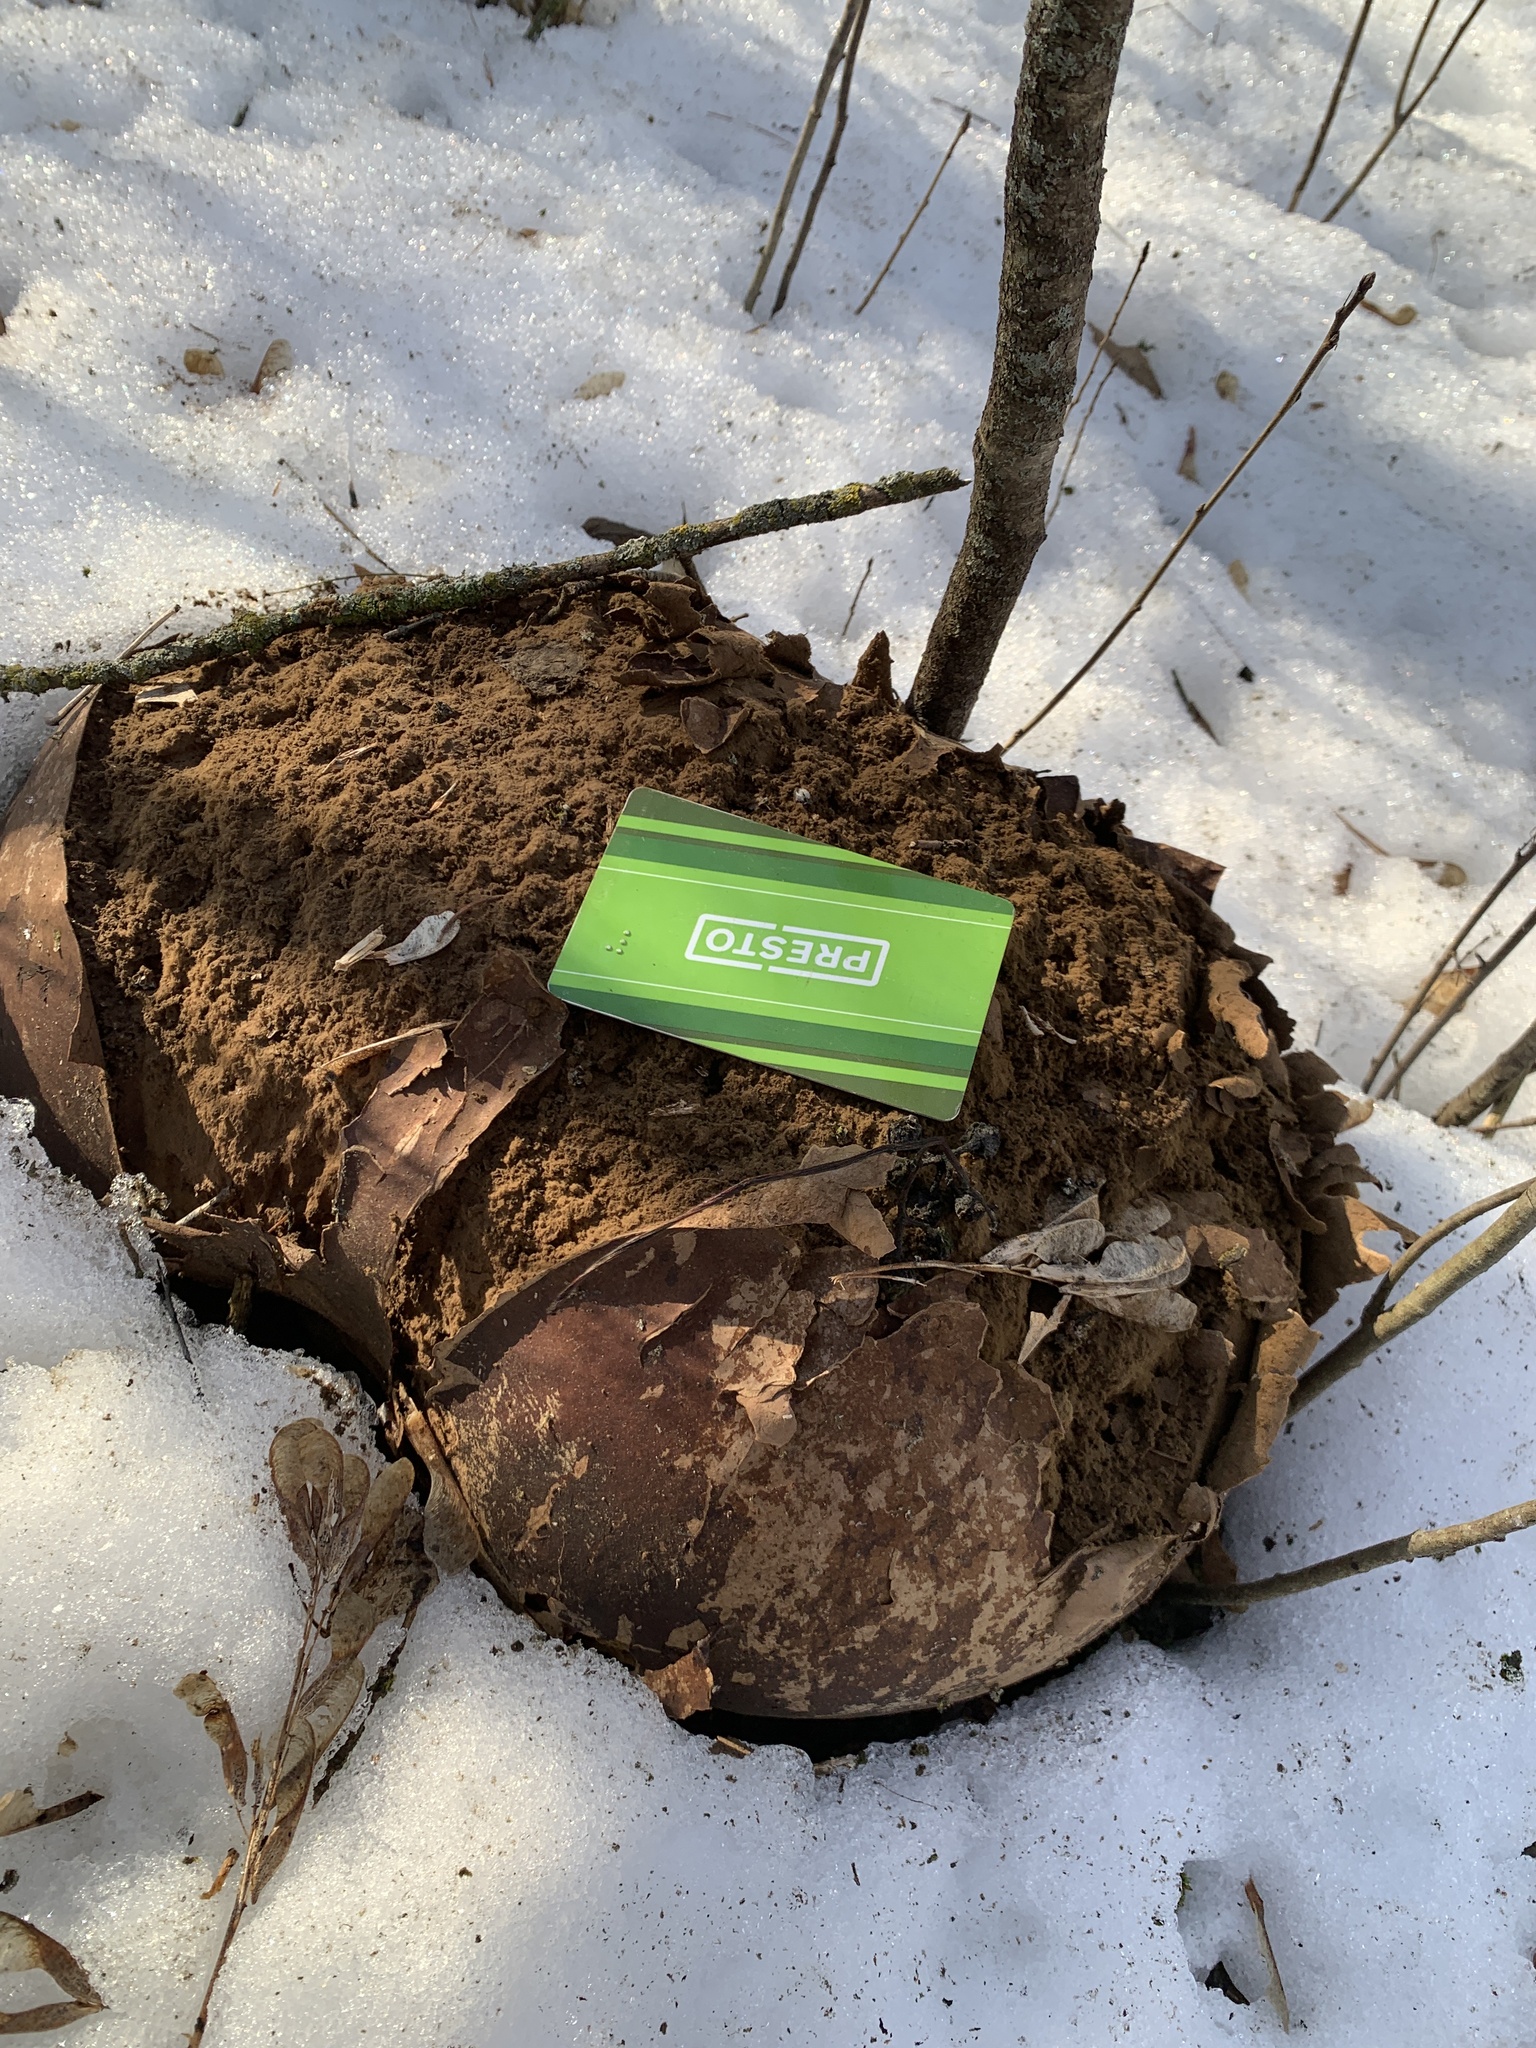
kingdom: Fungi
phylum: Basidiomycota
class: Agaricomycetes
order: Agaricales
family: Lycoperdaceae
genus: Calvatia
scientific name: Calvatia gigantea
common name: Giant puffball
